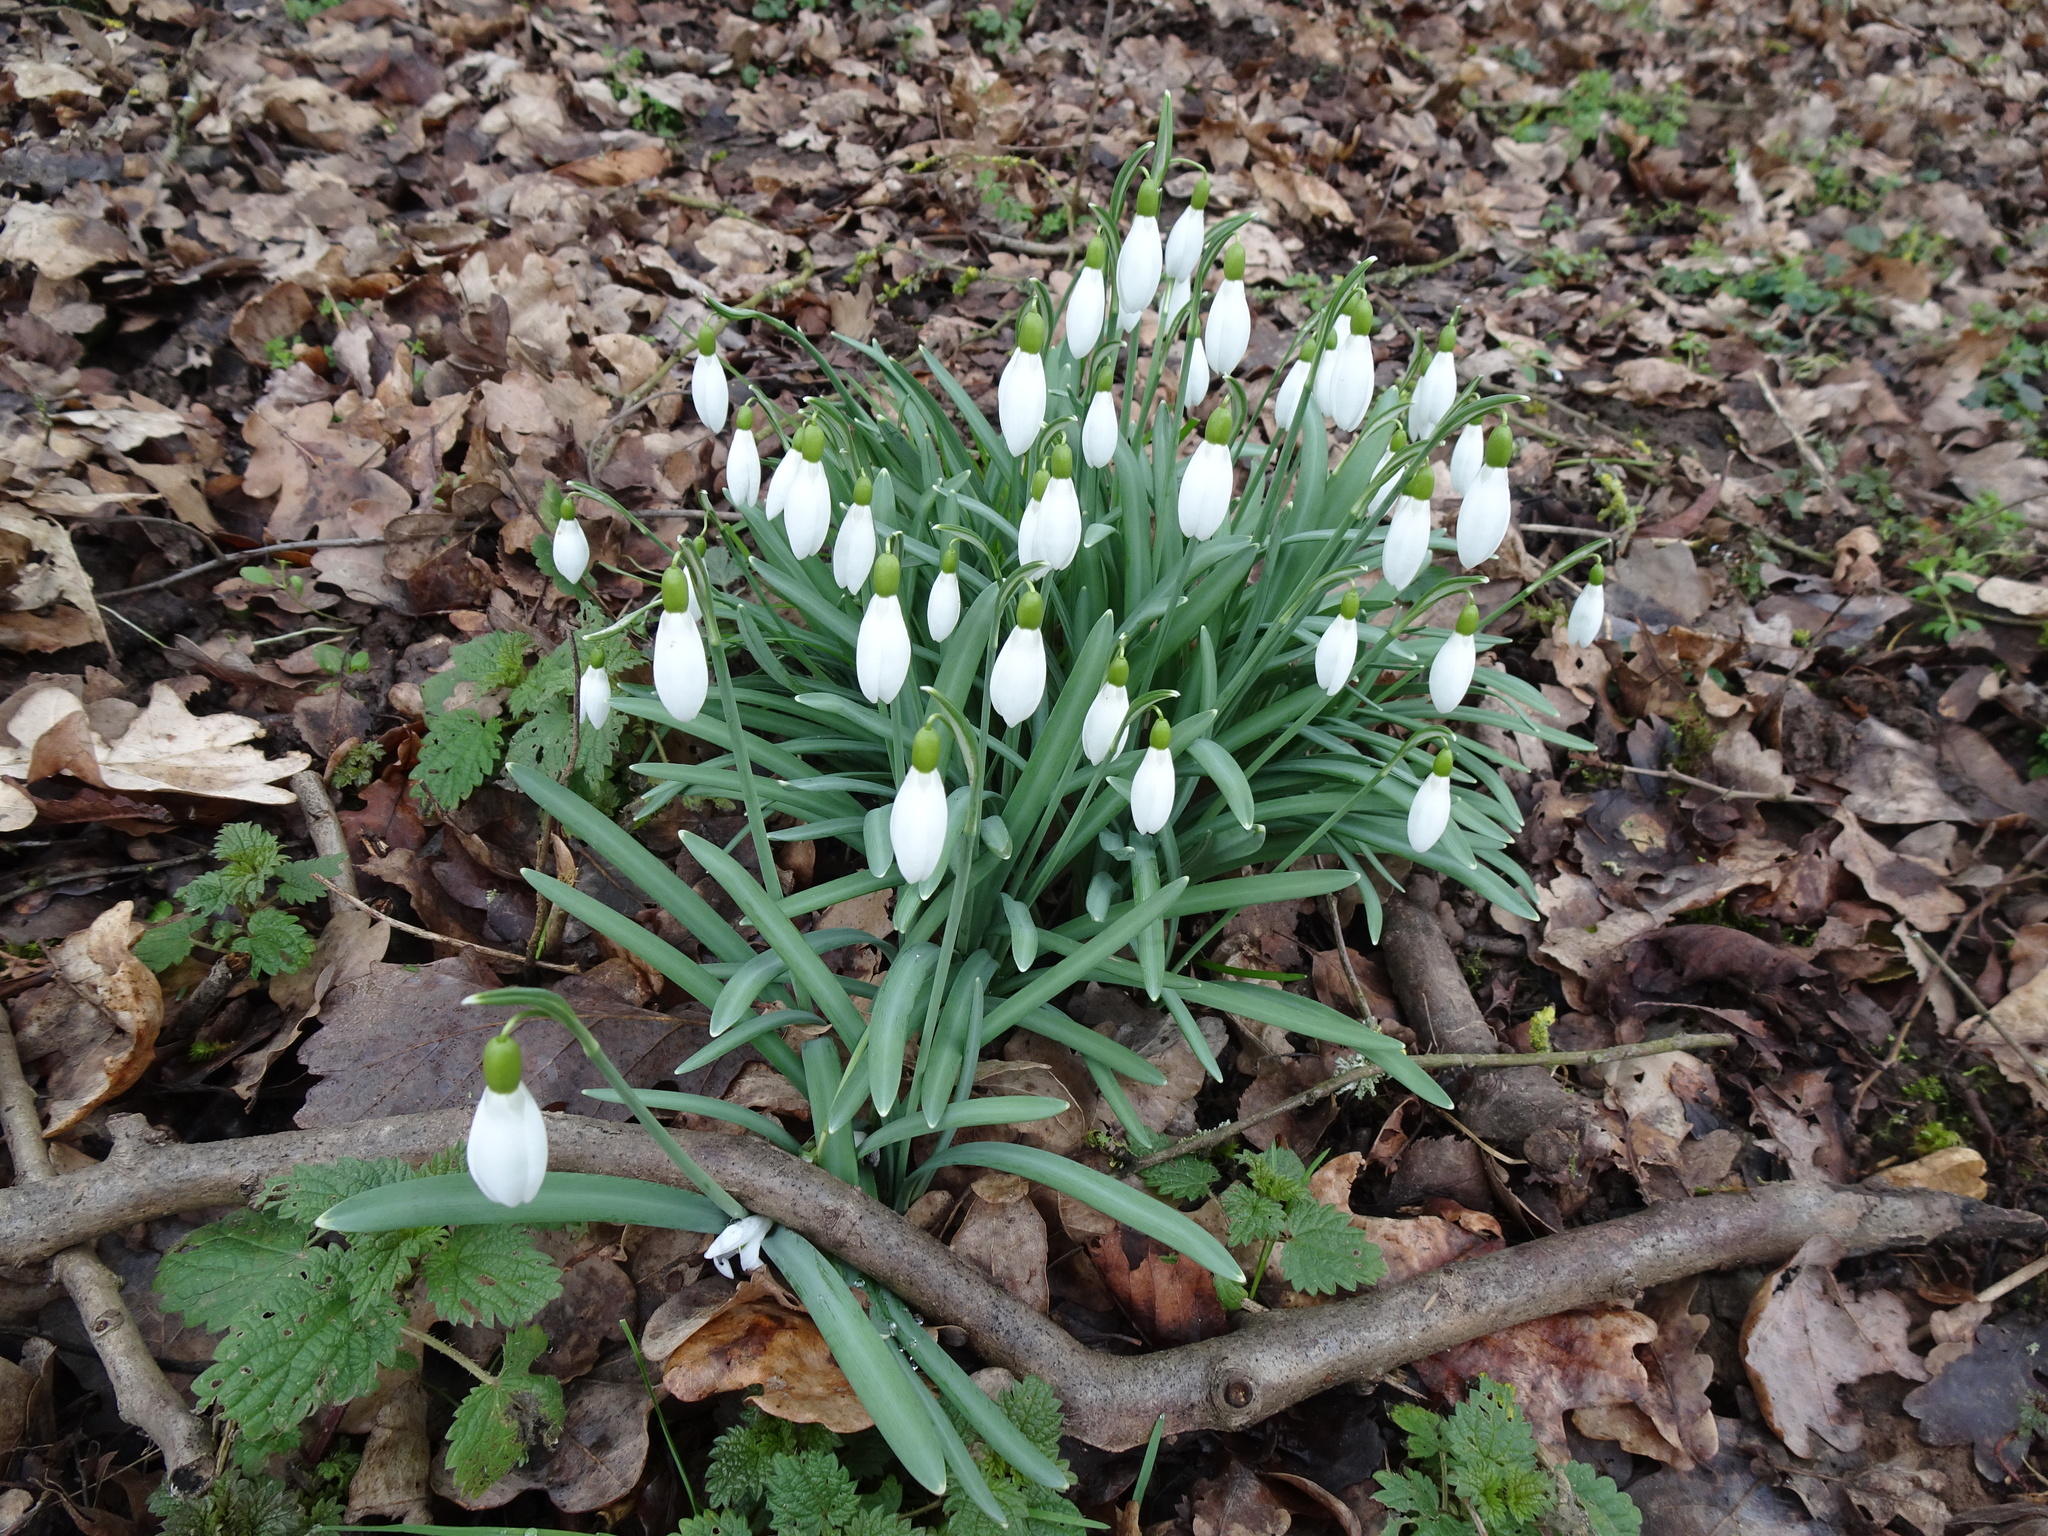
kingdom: Plantae
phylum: Tracheophyta
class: Liliopsida
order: Asparagales
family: Amaryllidaceae
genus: Galanthus
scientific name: Galanthus nivalis
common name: Snowdrop
